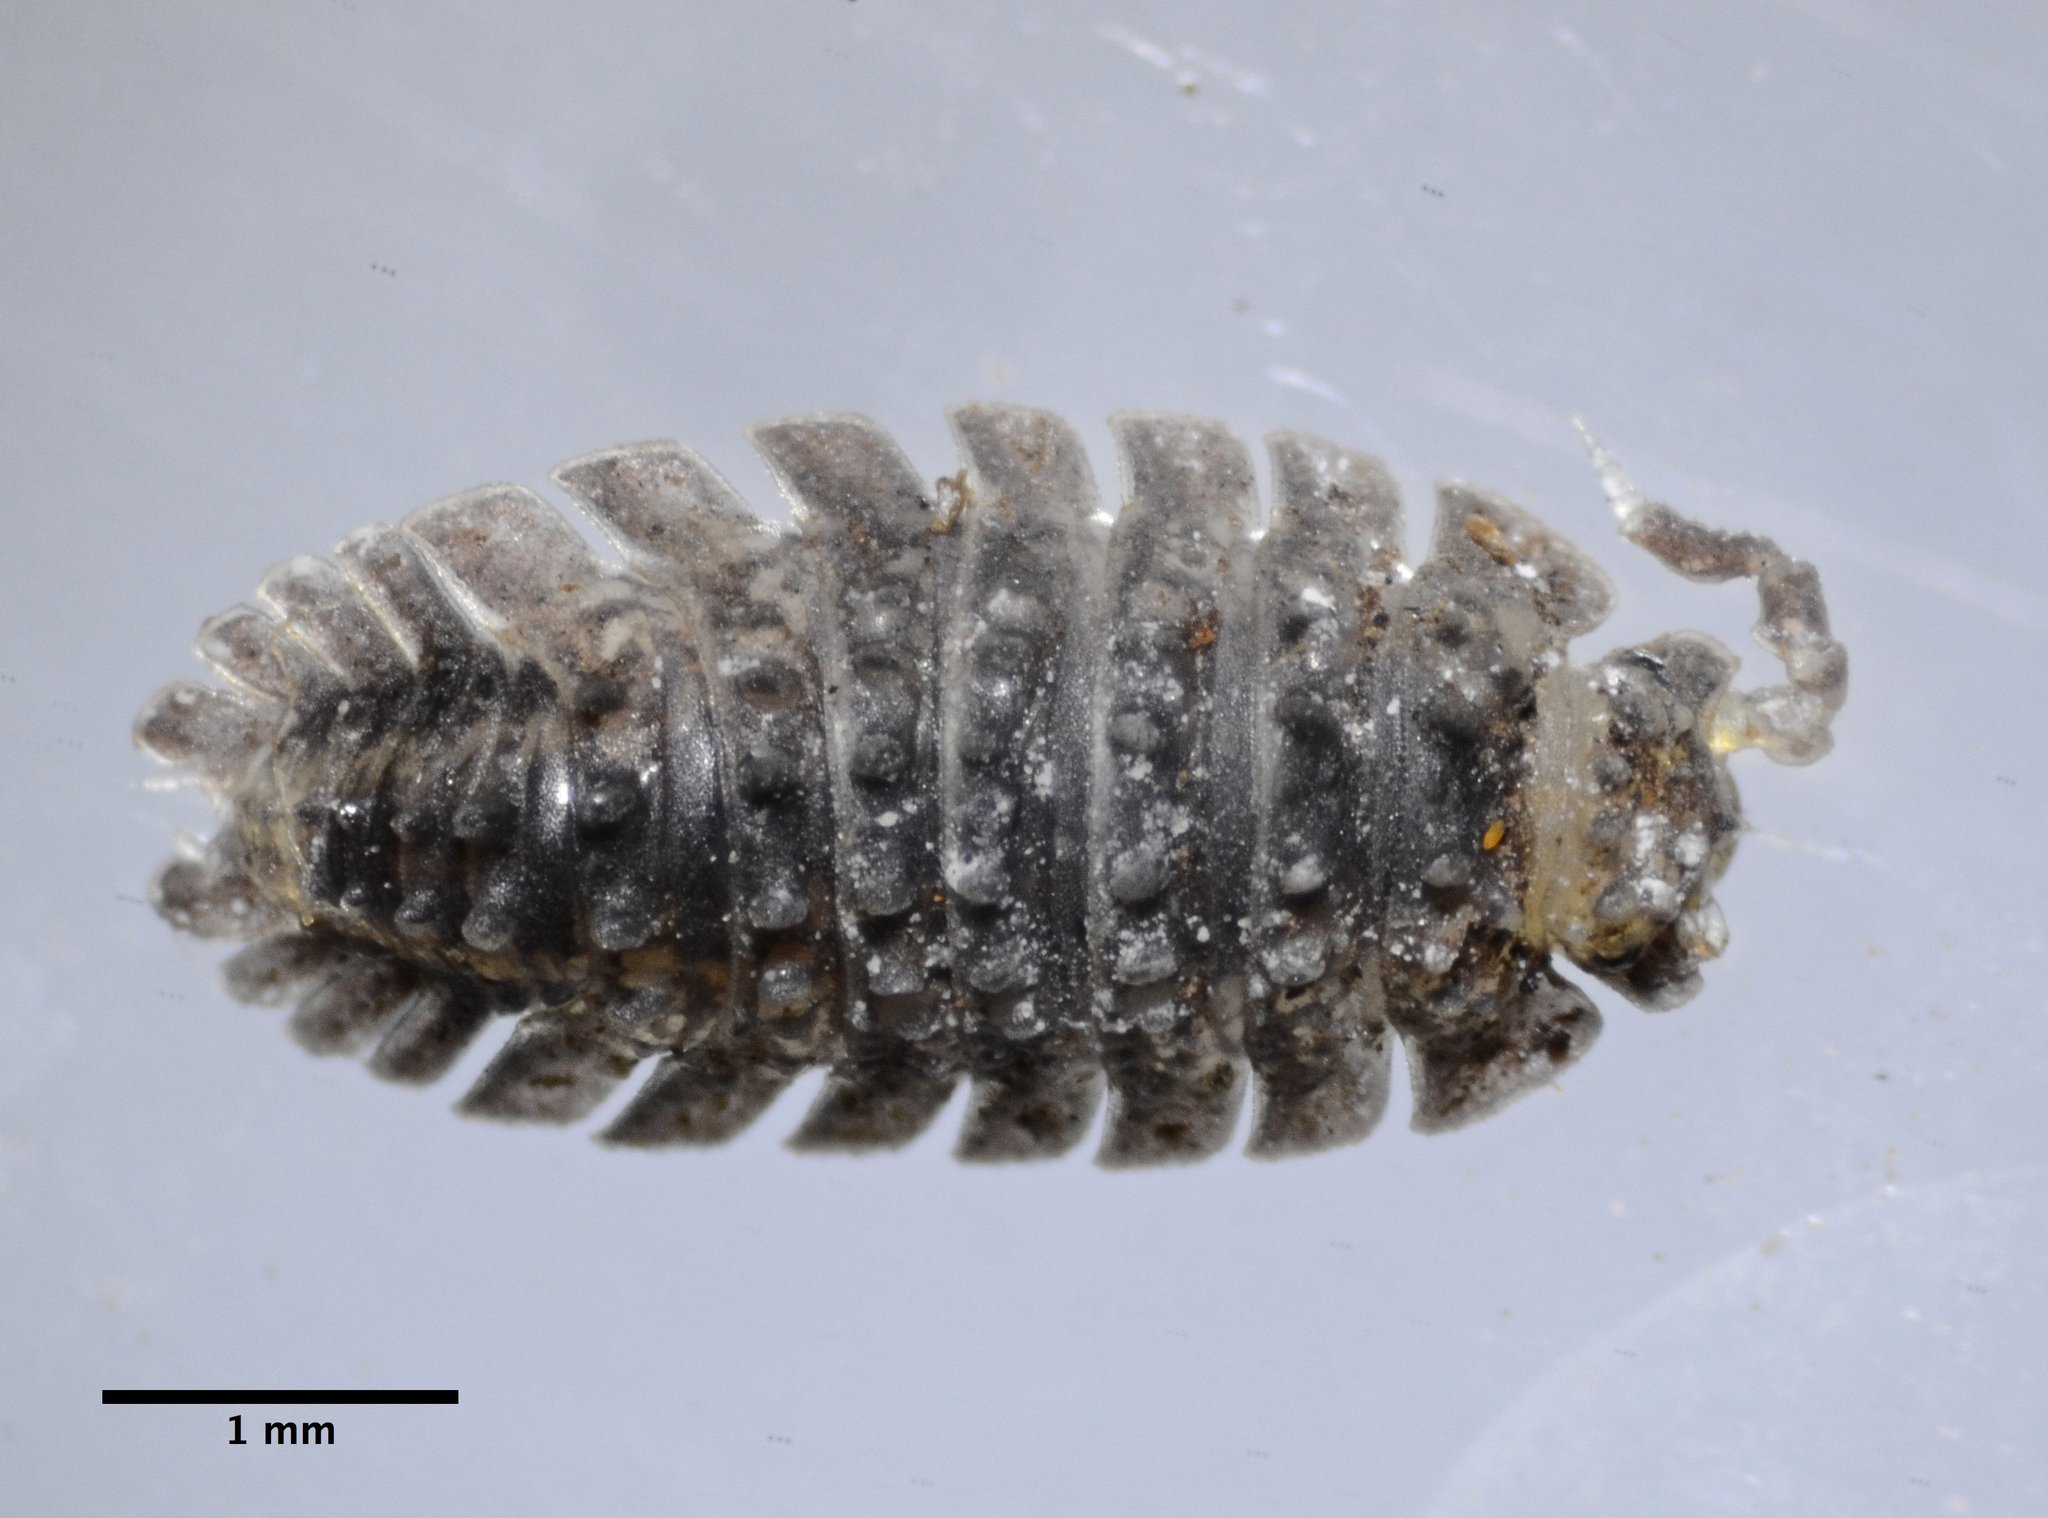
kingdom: Animalia
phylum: Arthropoda
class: Malacostraca
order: Isopoda
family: Detonidae
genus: Armadilloniscus
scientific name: Armadilloniscus coronacapitalis
